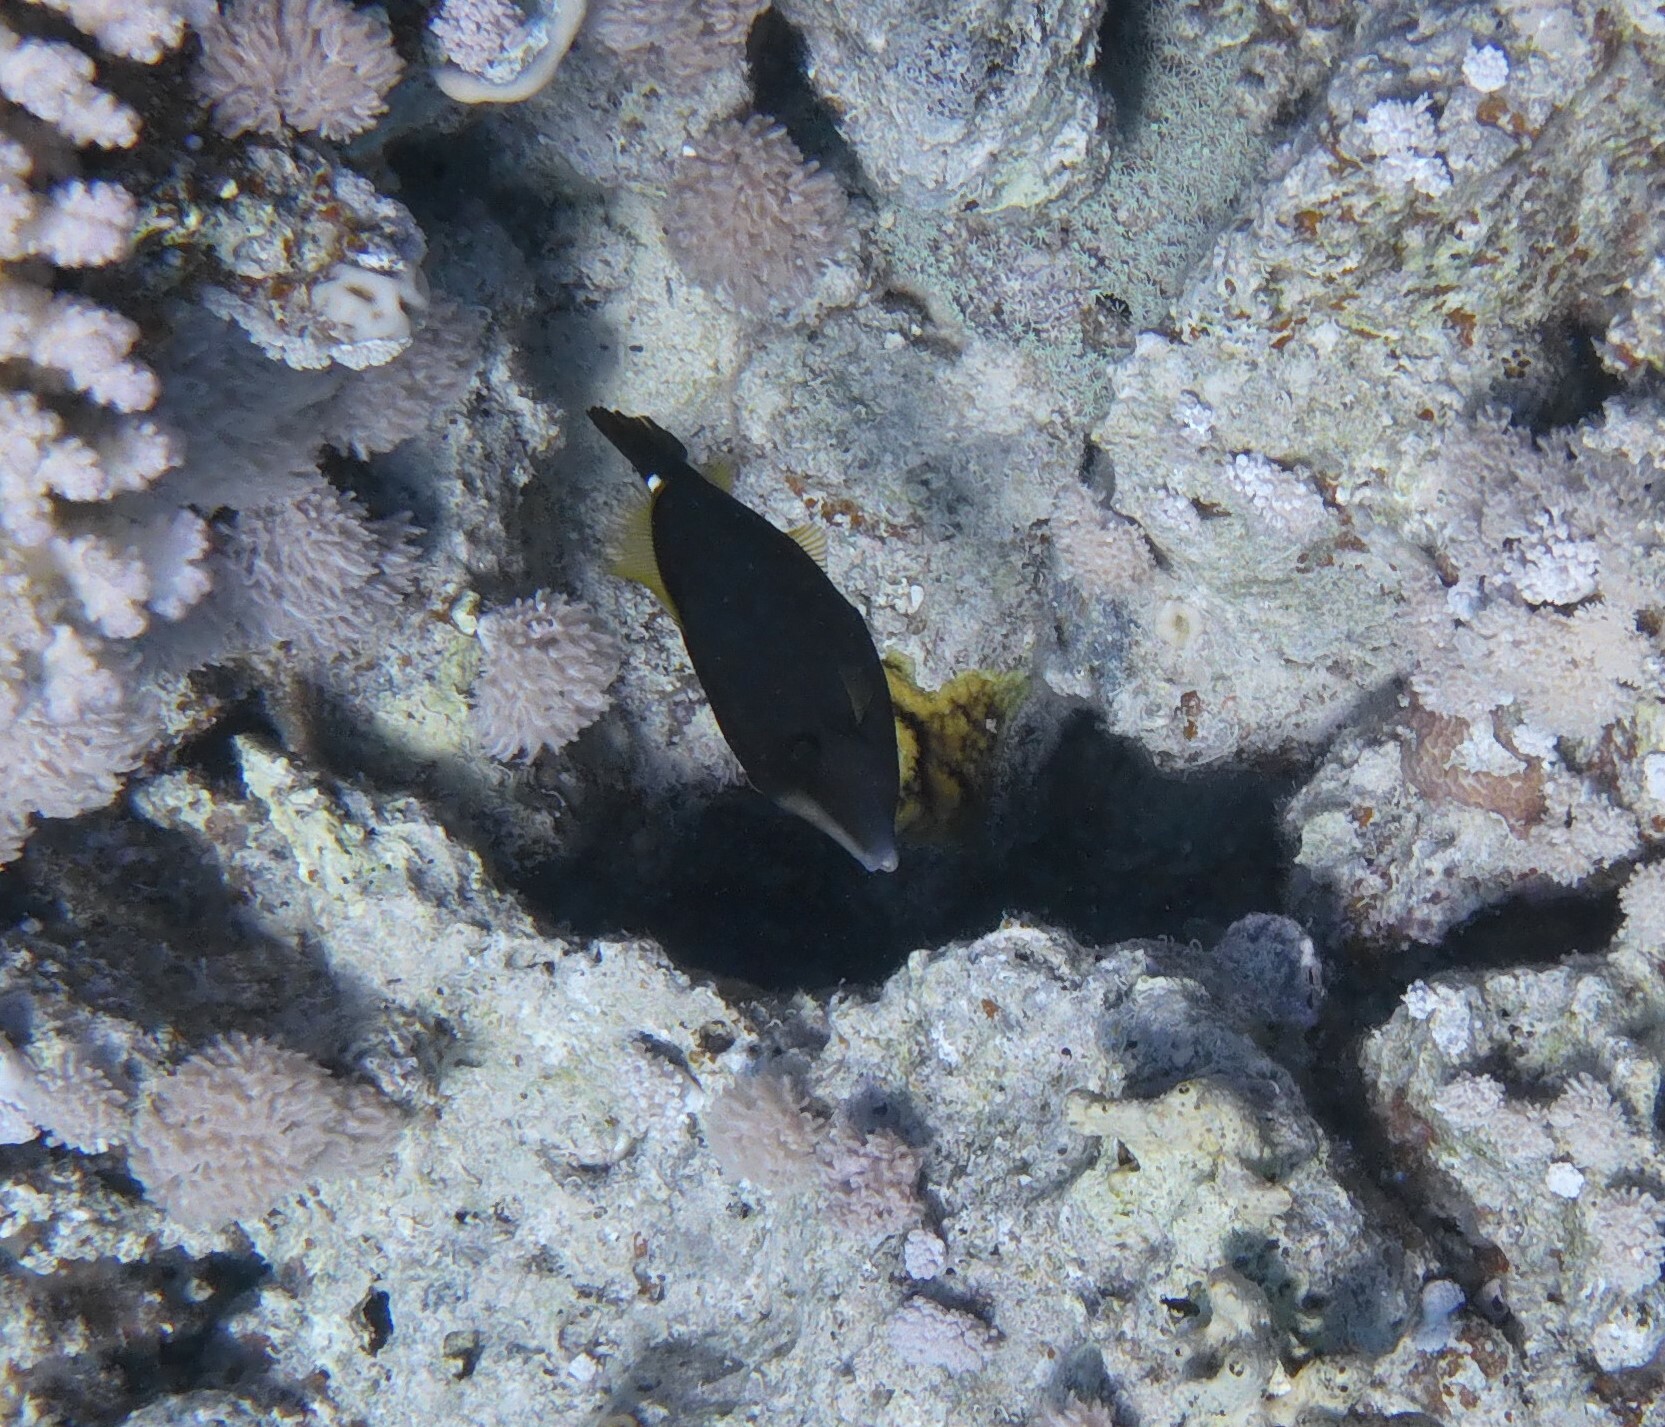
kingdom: Animalia
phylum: Chordata
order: Tetraodontiformes
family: Monacanthidae
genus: Cantherhines
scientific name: Cantherhines pardalis
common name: Honeycomb filefish
